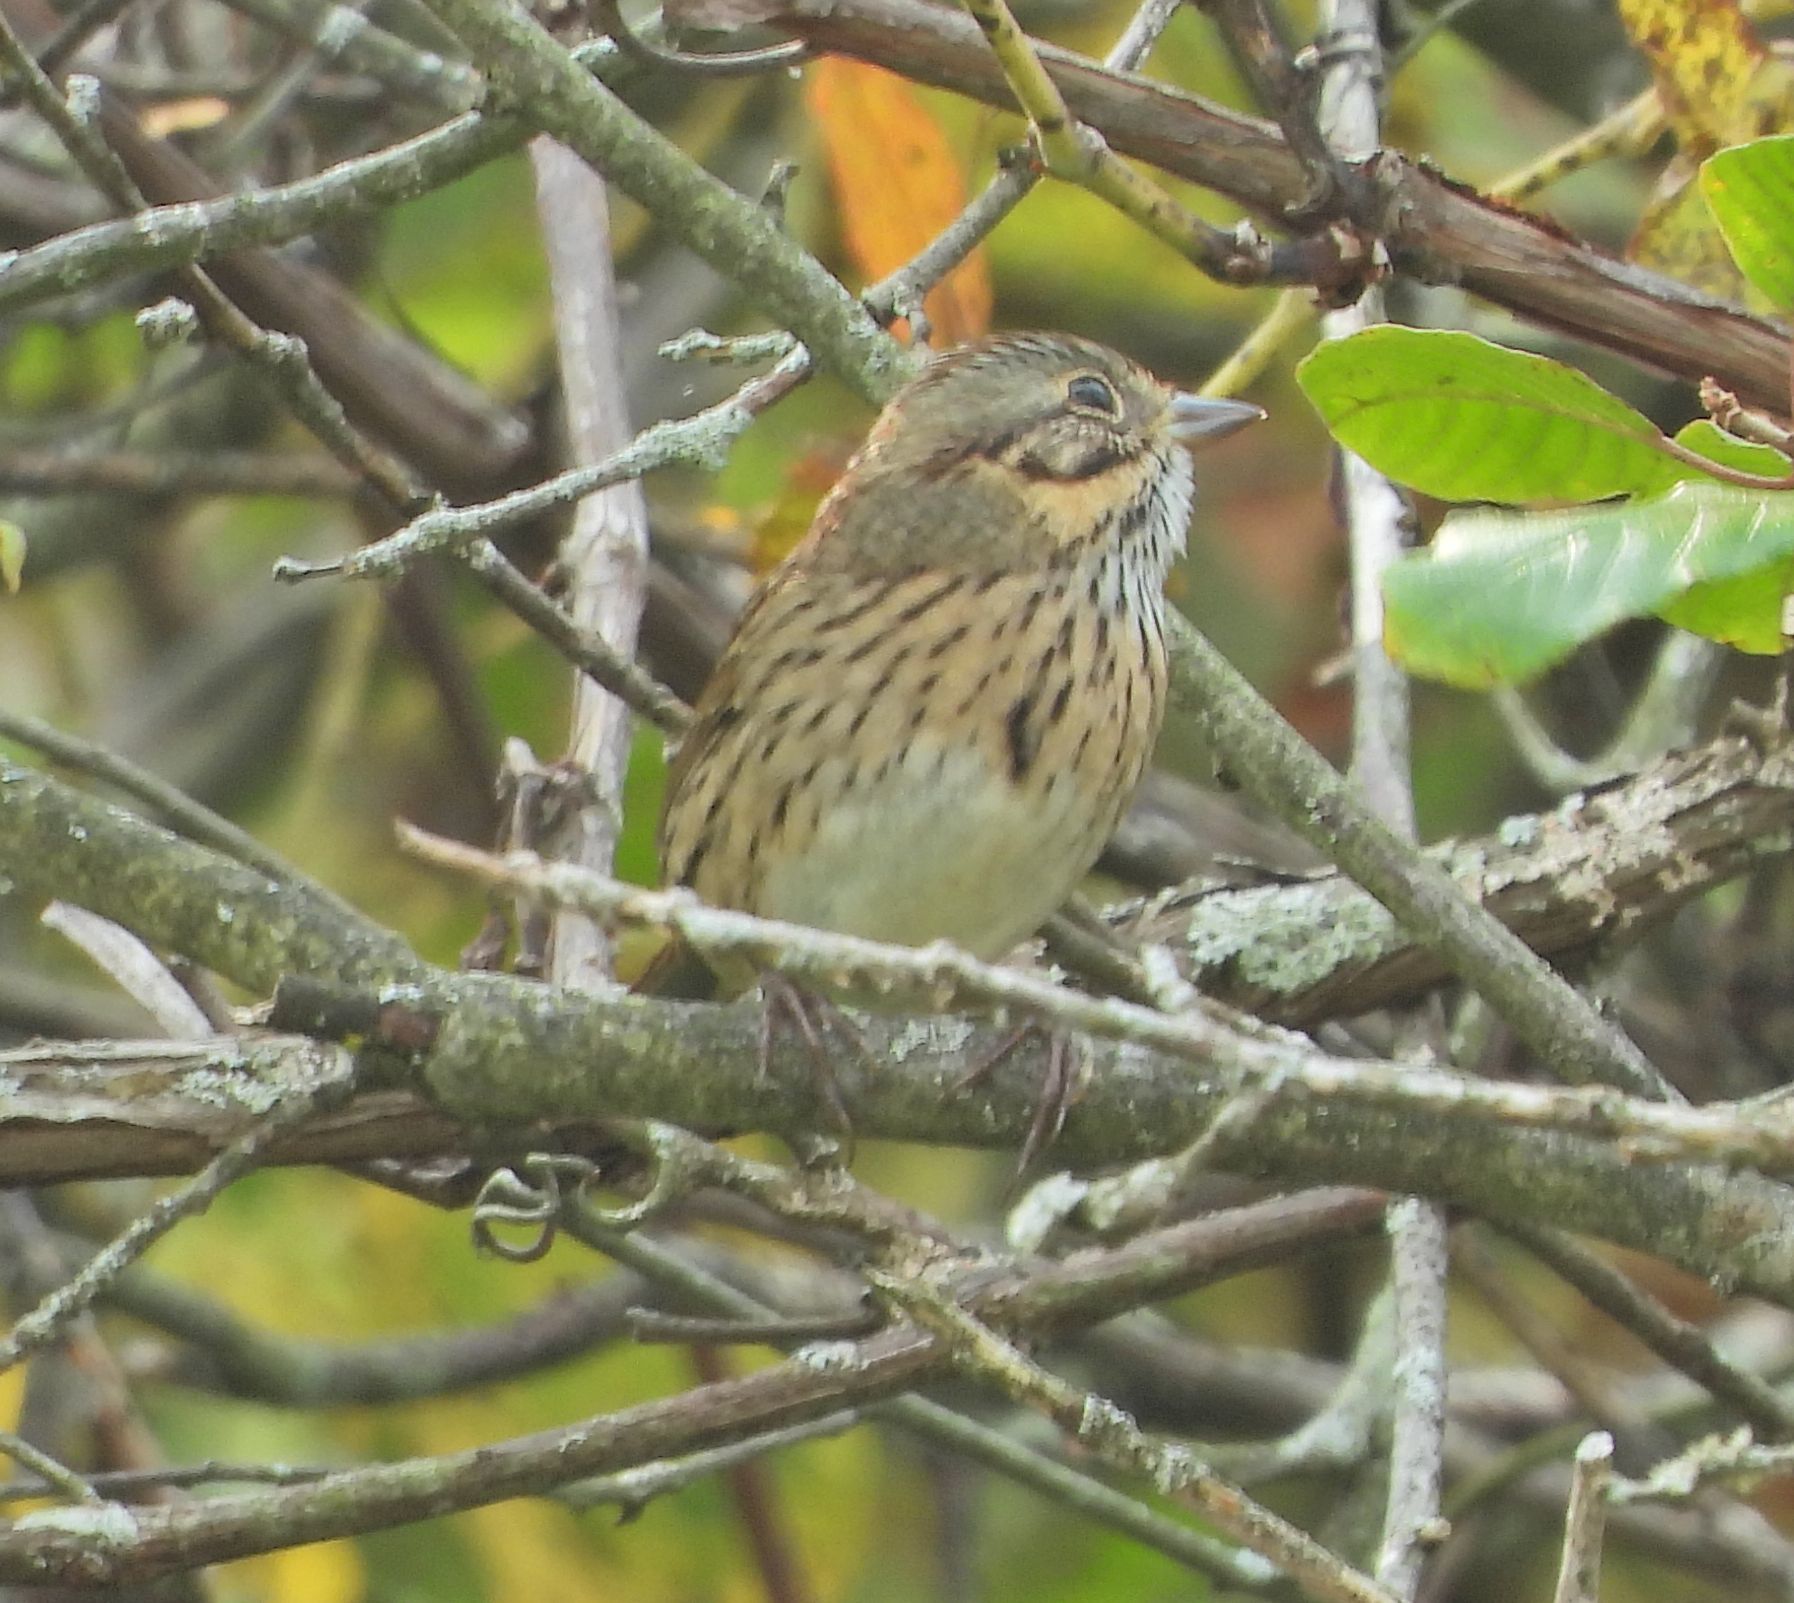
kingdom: Animalia
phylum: Chordata
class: Aves
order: Passeriformes
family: Passerellidae
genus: Melospiza
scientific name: Melospiza lincolnii
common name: Lincoln's sparrow
